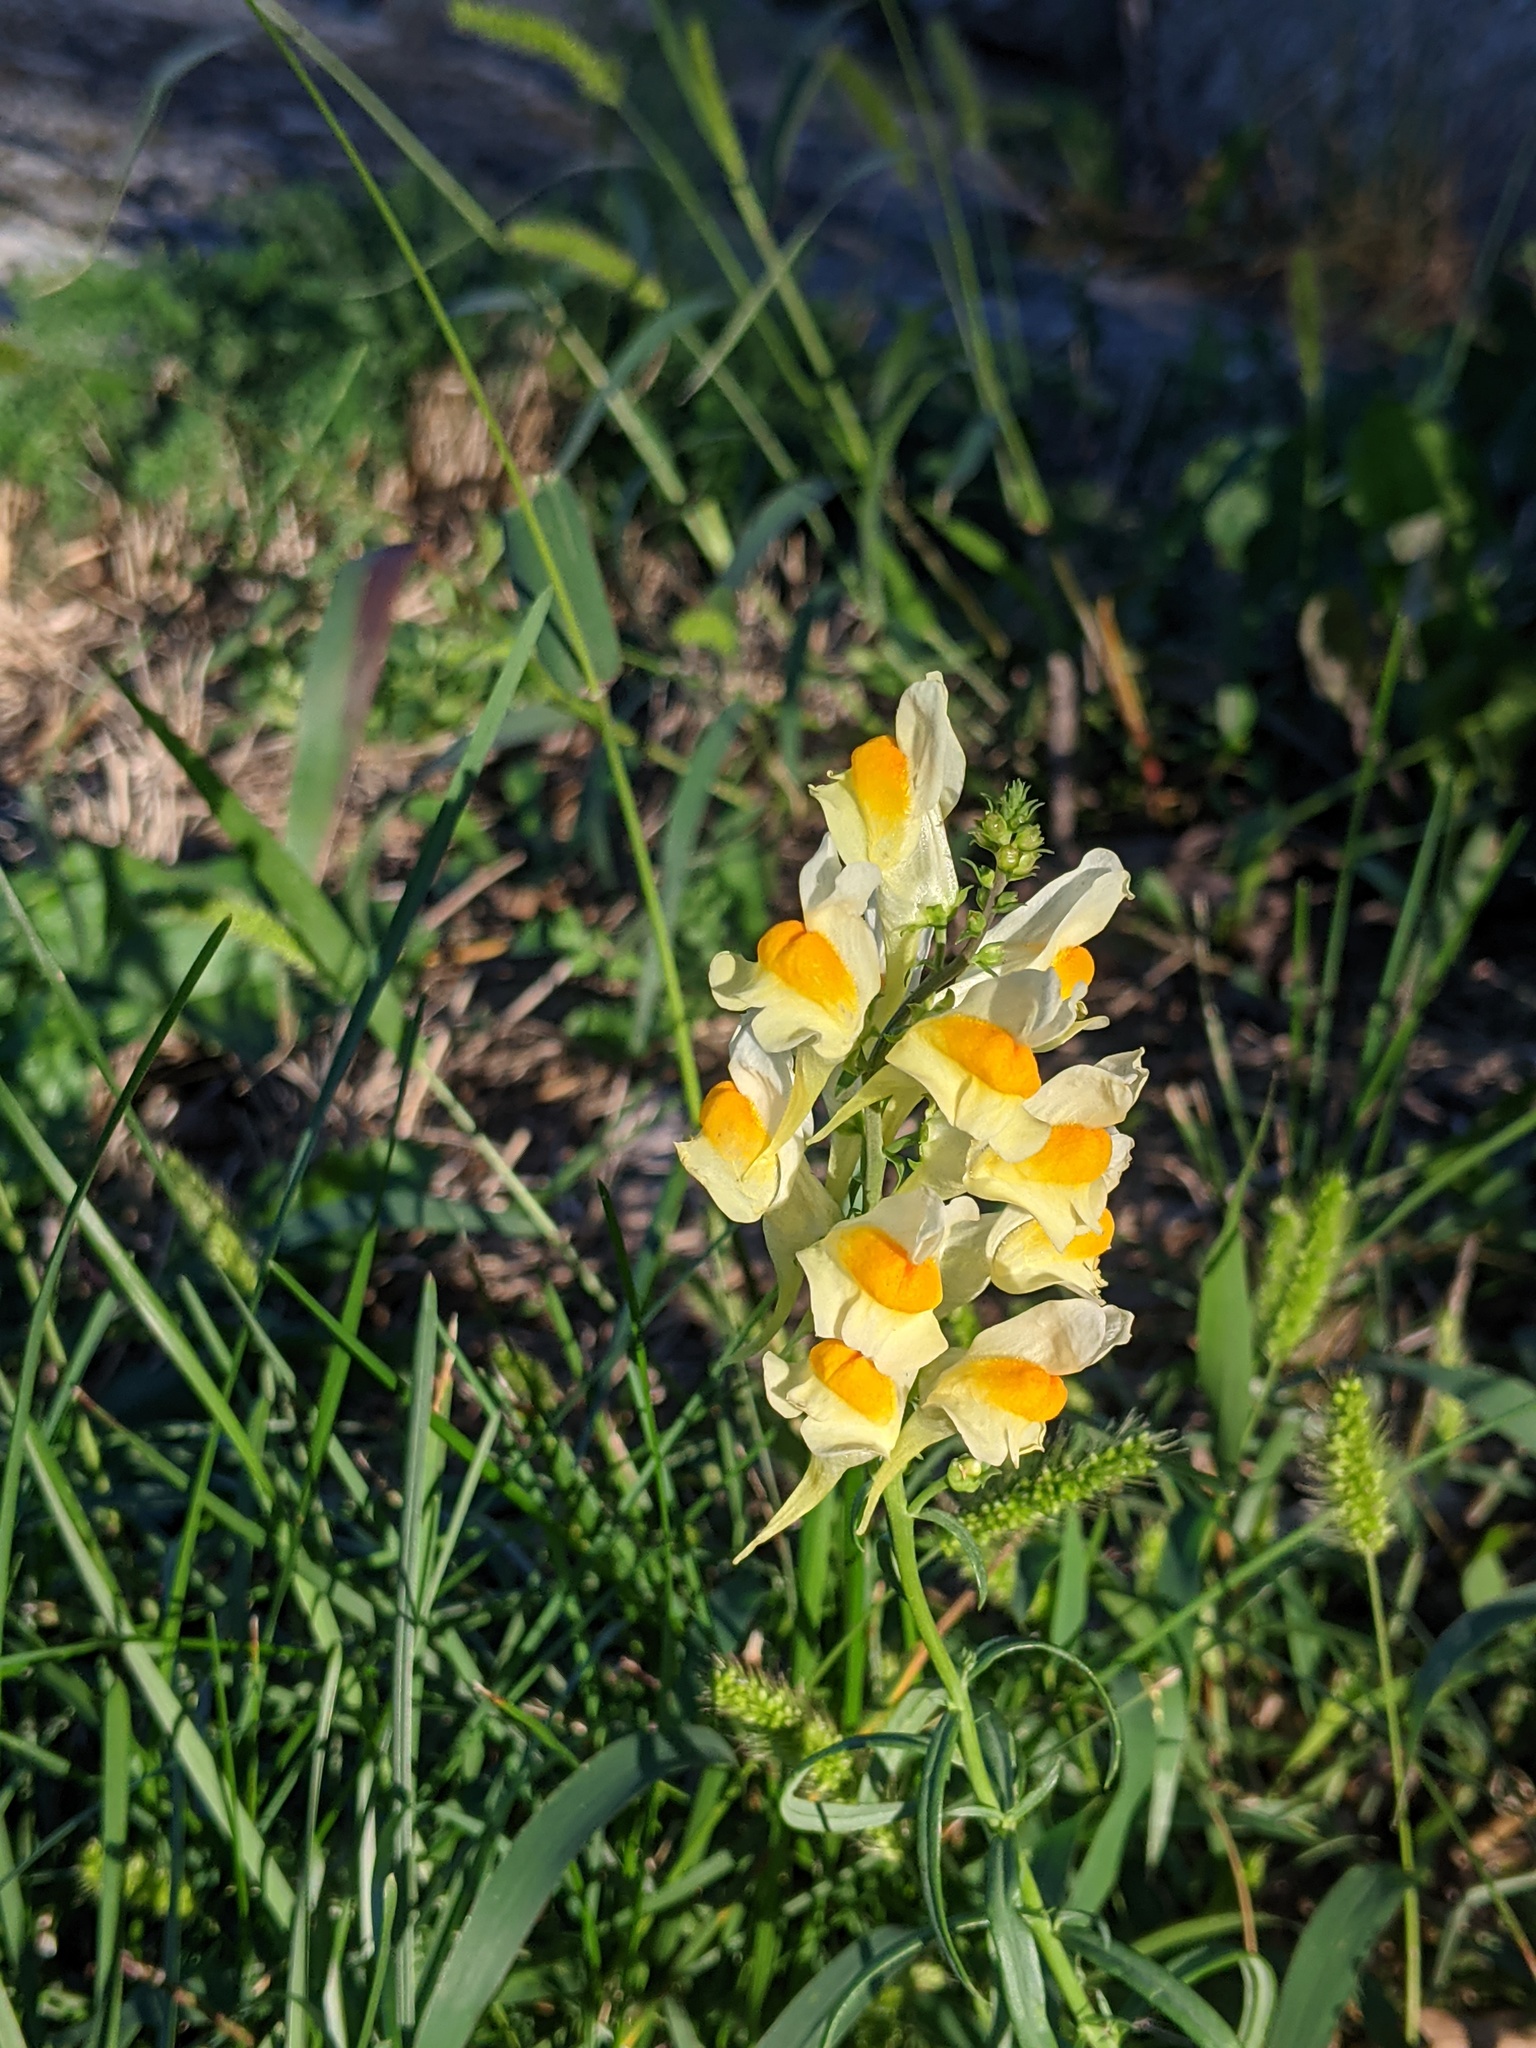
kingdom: Plantae
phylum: Tracheophyta
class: Magnoliopsida
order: Lamiales
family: Plantaginaceae
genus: Linaria
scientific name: Linaria vulgaris
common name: Butter and eggs
